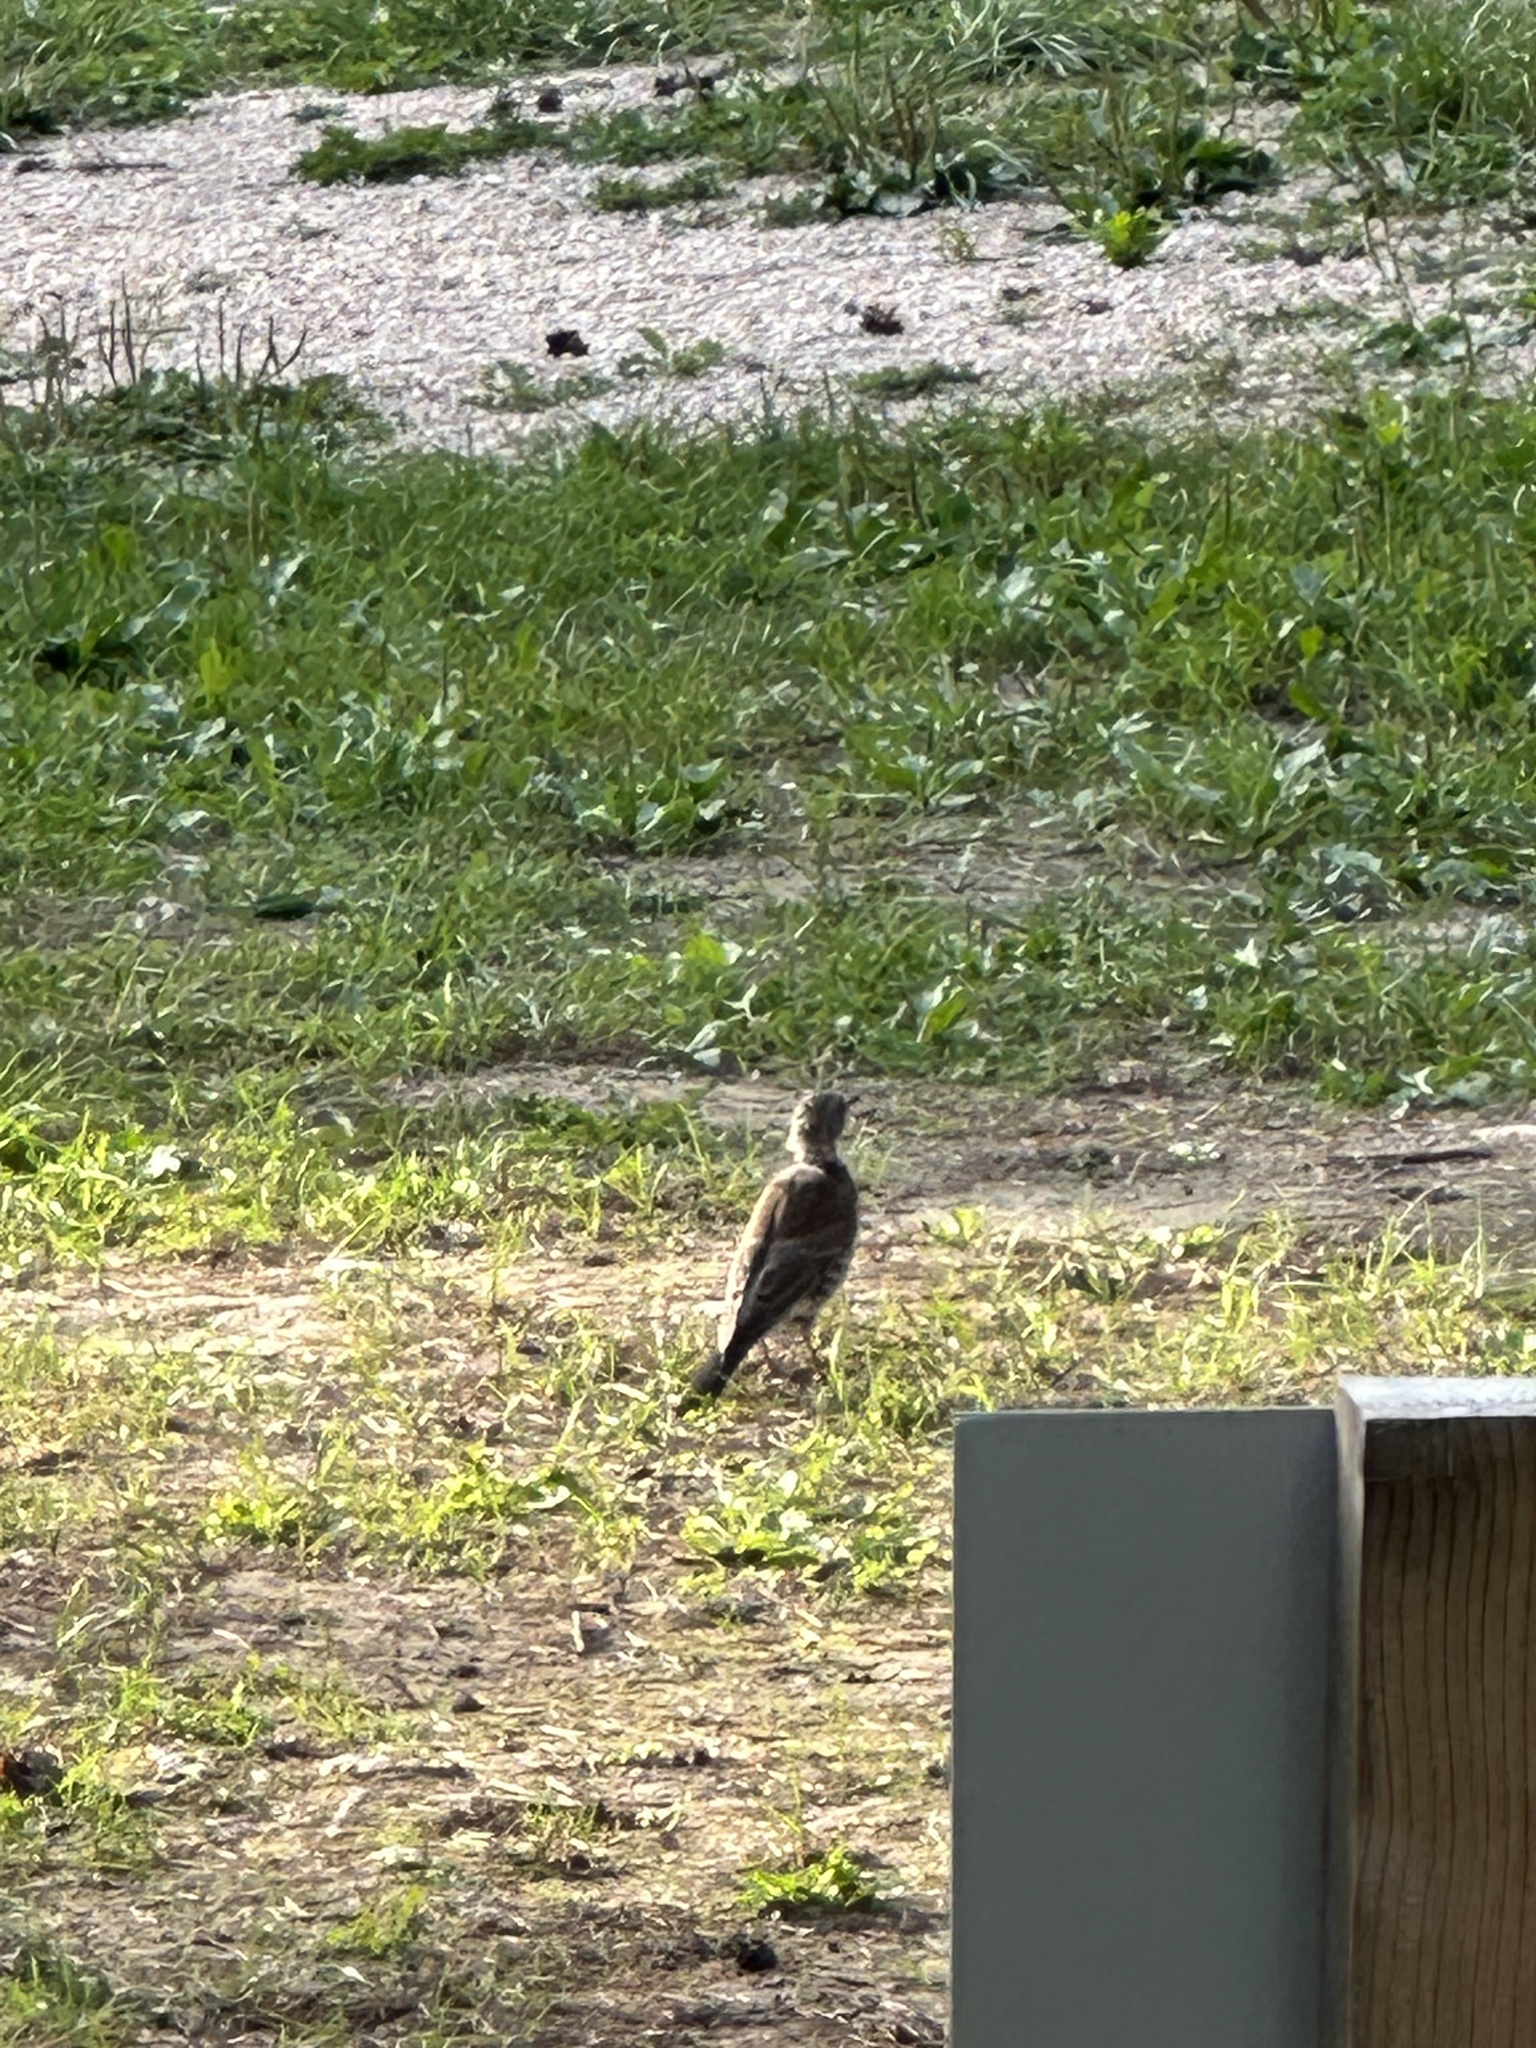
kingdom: Animalia
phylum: Chordata
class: Aves
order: Passeriformes
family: Turdidae
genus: Turdus
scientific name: Turdus pilaris
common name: Fieldfare
